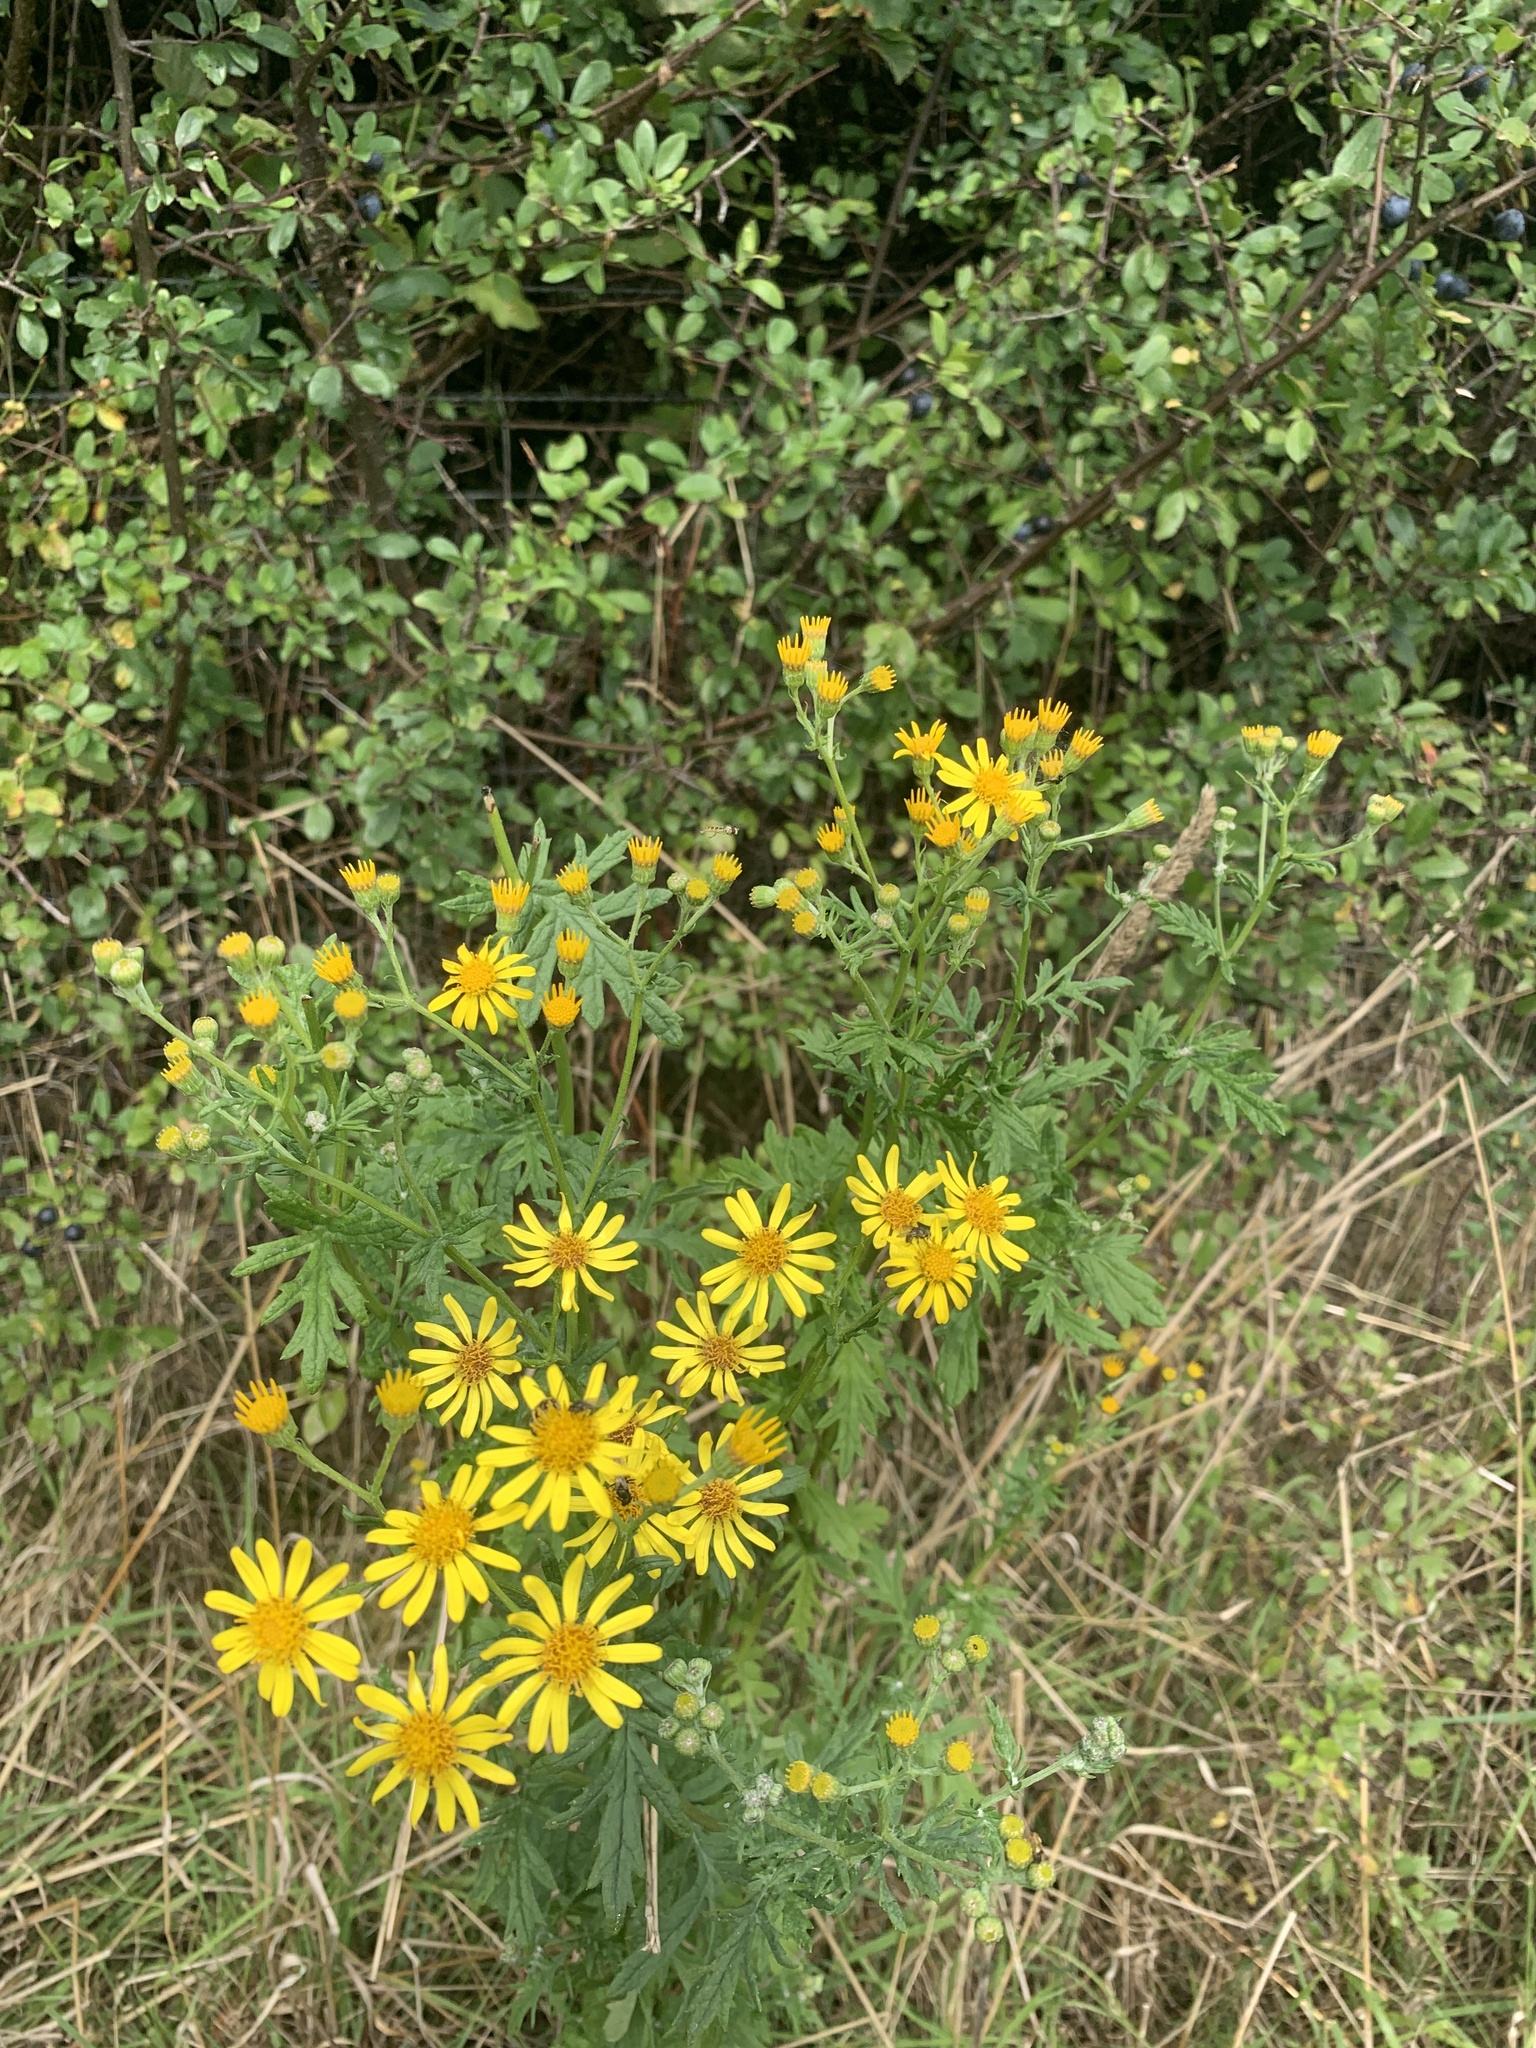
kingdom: Plantae
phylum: Tracheophyta
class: Magnoliopsida
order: Asterales
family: Asteraceae
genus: Jacobaea
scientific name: Jacobaea erucifolia
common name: Hoary ragwort
